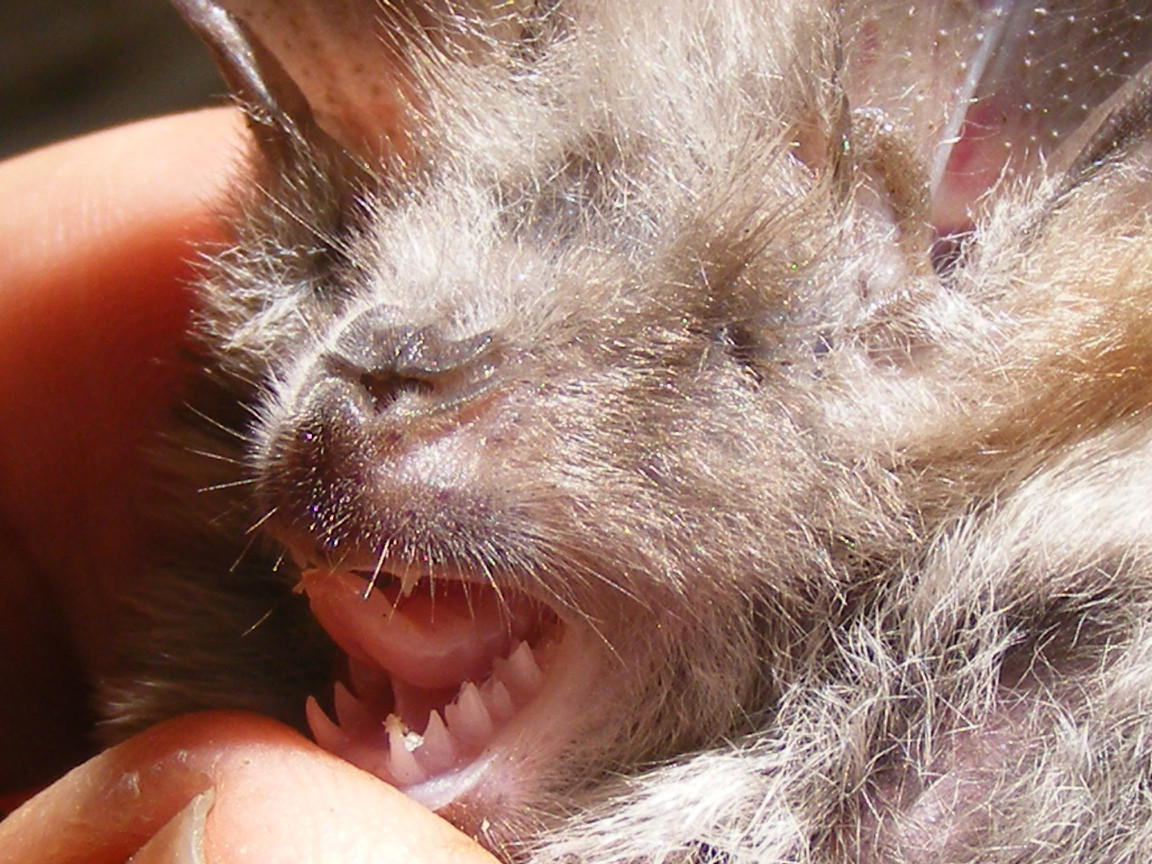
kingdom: Animalia
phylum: Chordata
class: Mammalia
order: Chiroptera
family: Nycteridae
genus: Nycteris
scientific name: Nycteris thebaica
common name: Egyptian slit-faced bat
